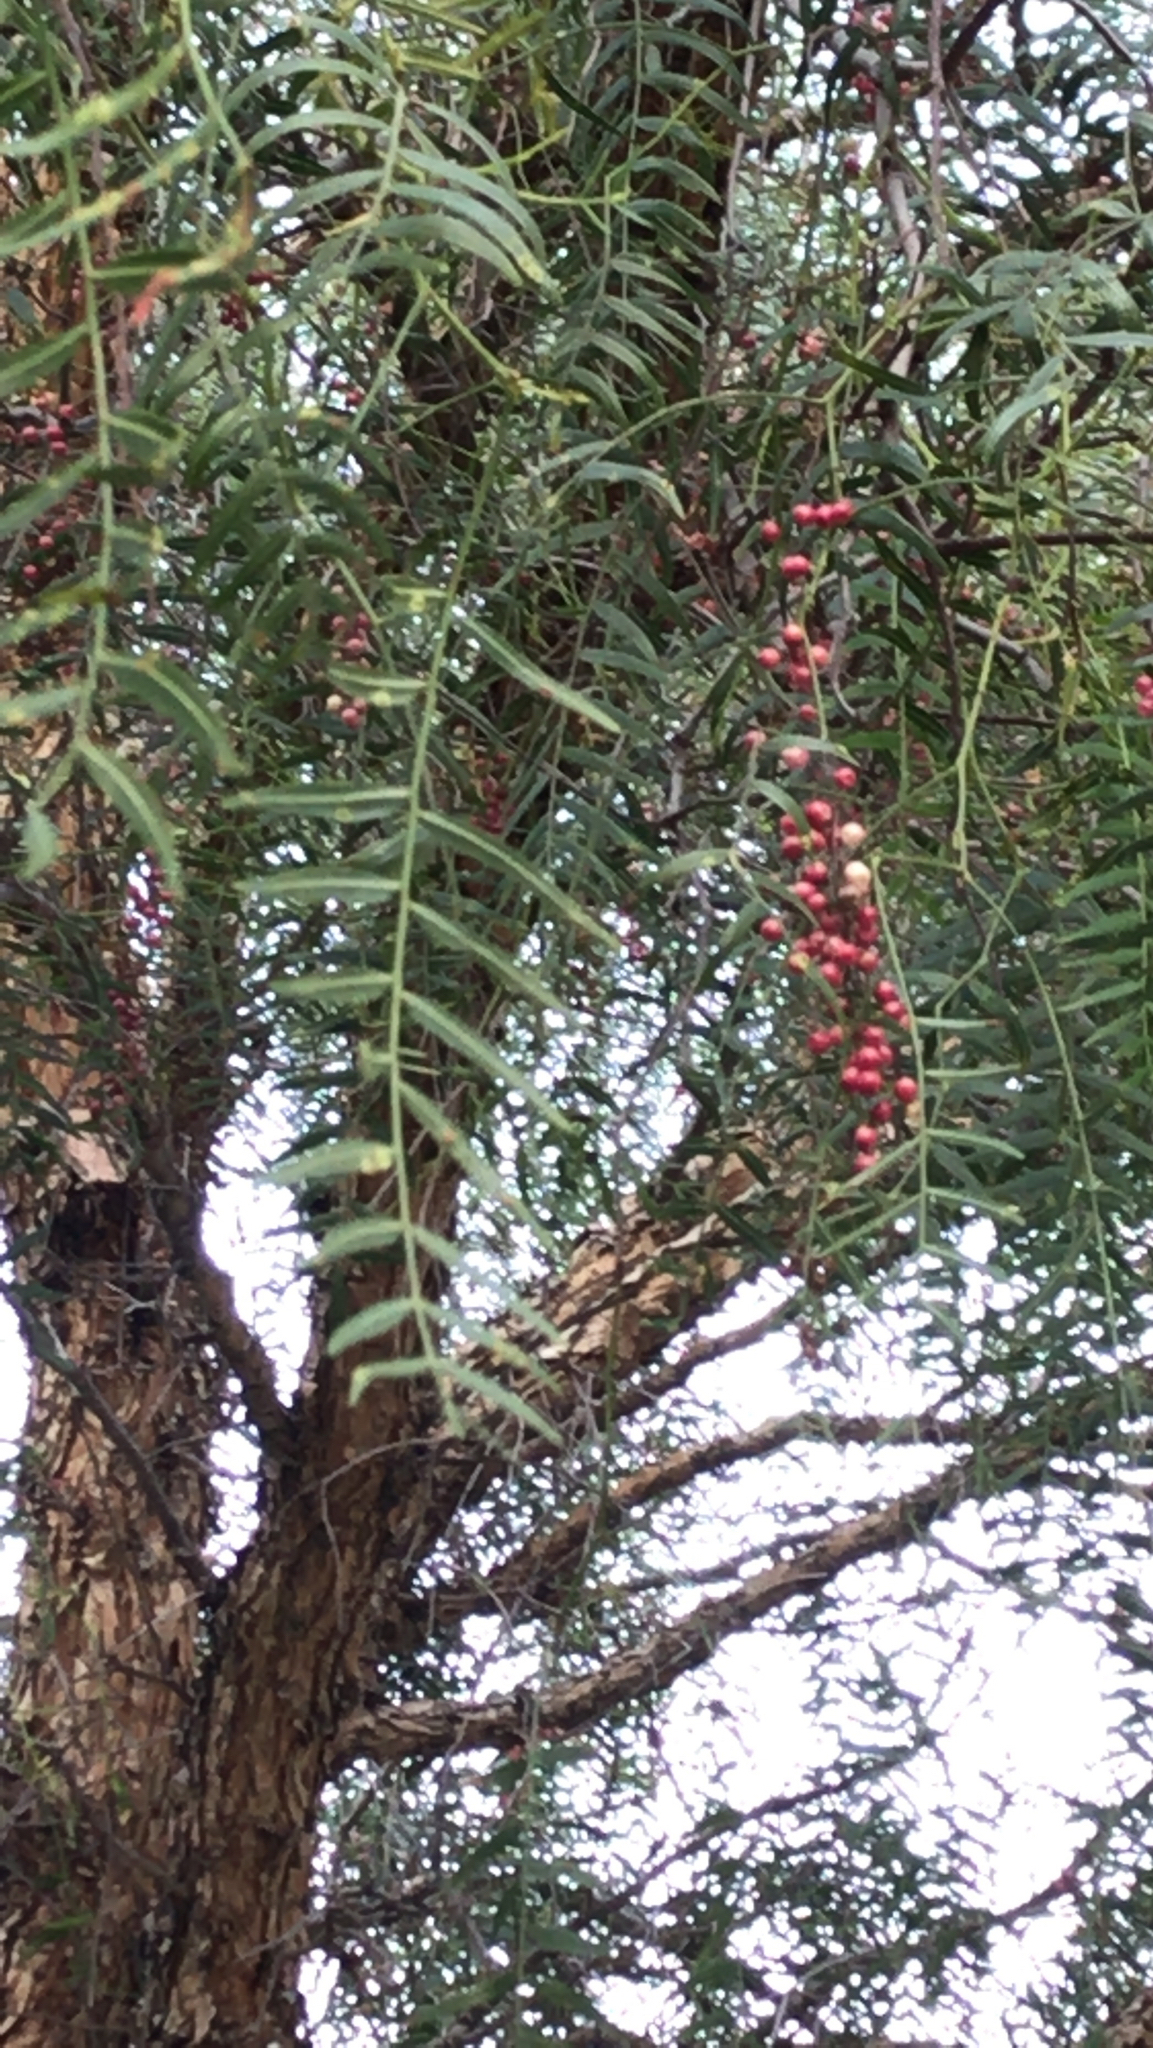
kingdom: Plantae
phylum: Tracheophyta
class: Magnoliopsida
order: Sapindales
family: Anacardiaceae
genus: Schinus
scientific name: Schinus molle
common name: Peruvian peppertree
